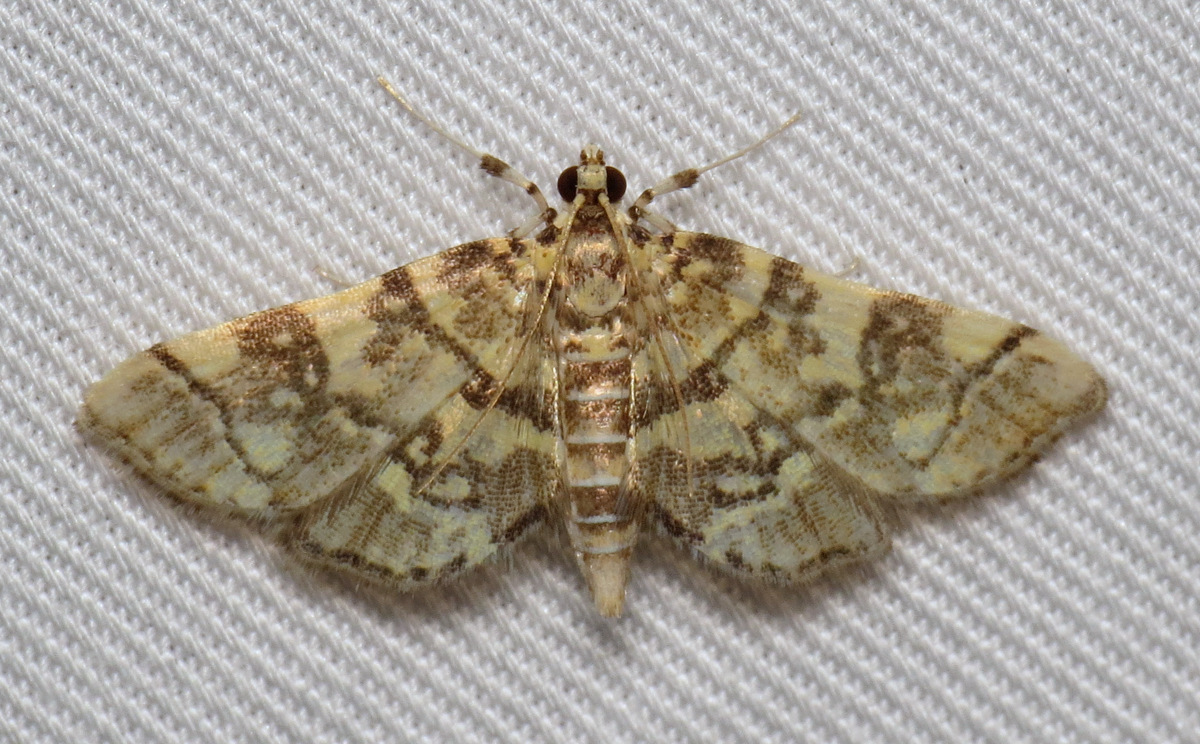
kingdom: Animalia
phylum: Arthropoda
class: Insecta
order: Lepidoptera
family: Crambidae
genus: Apogeshna
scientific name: Apogeshna stenialis
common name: Checkered apogeshna moth
